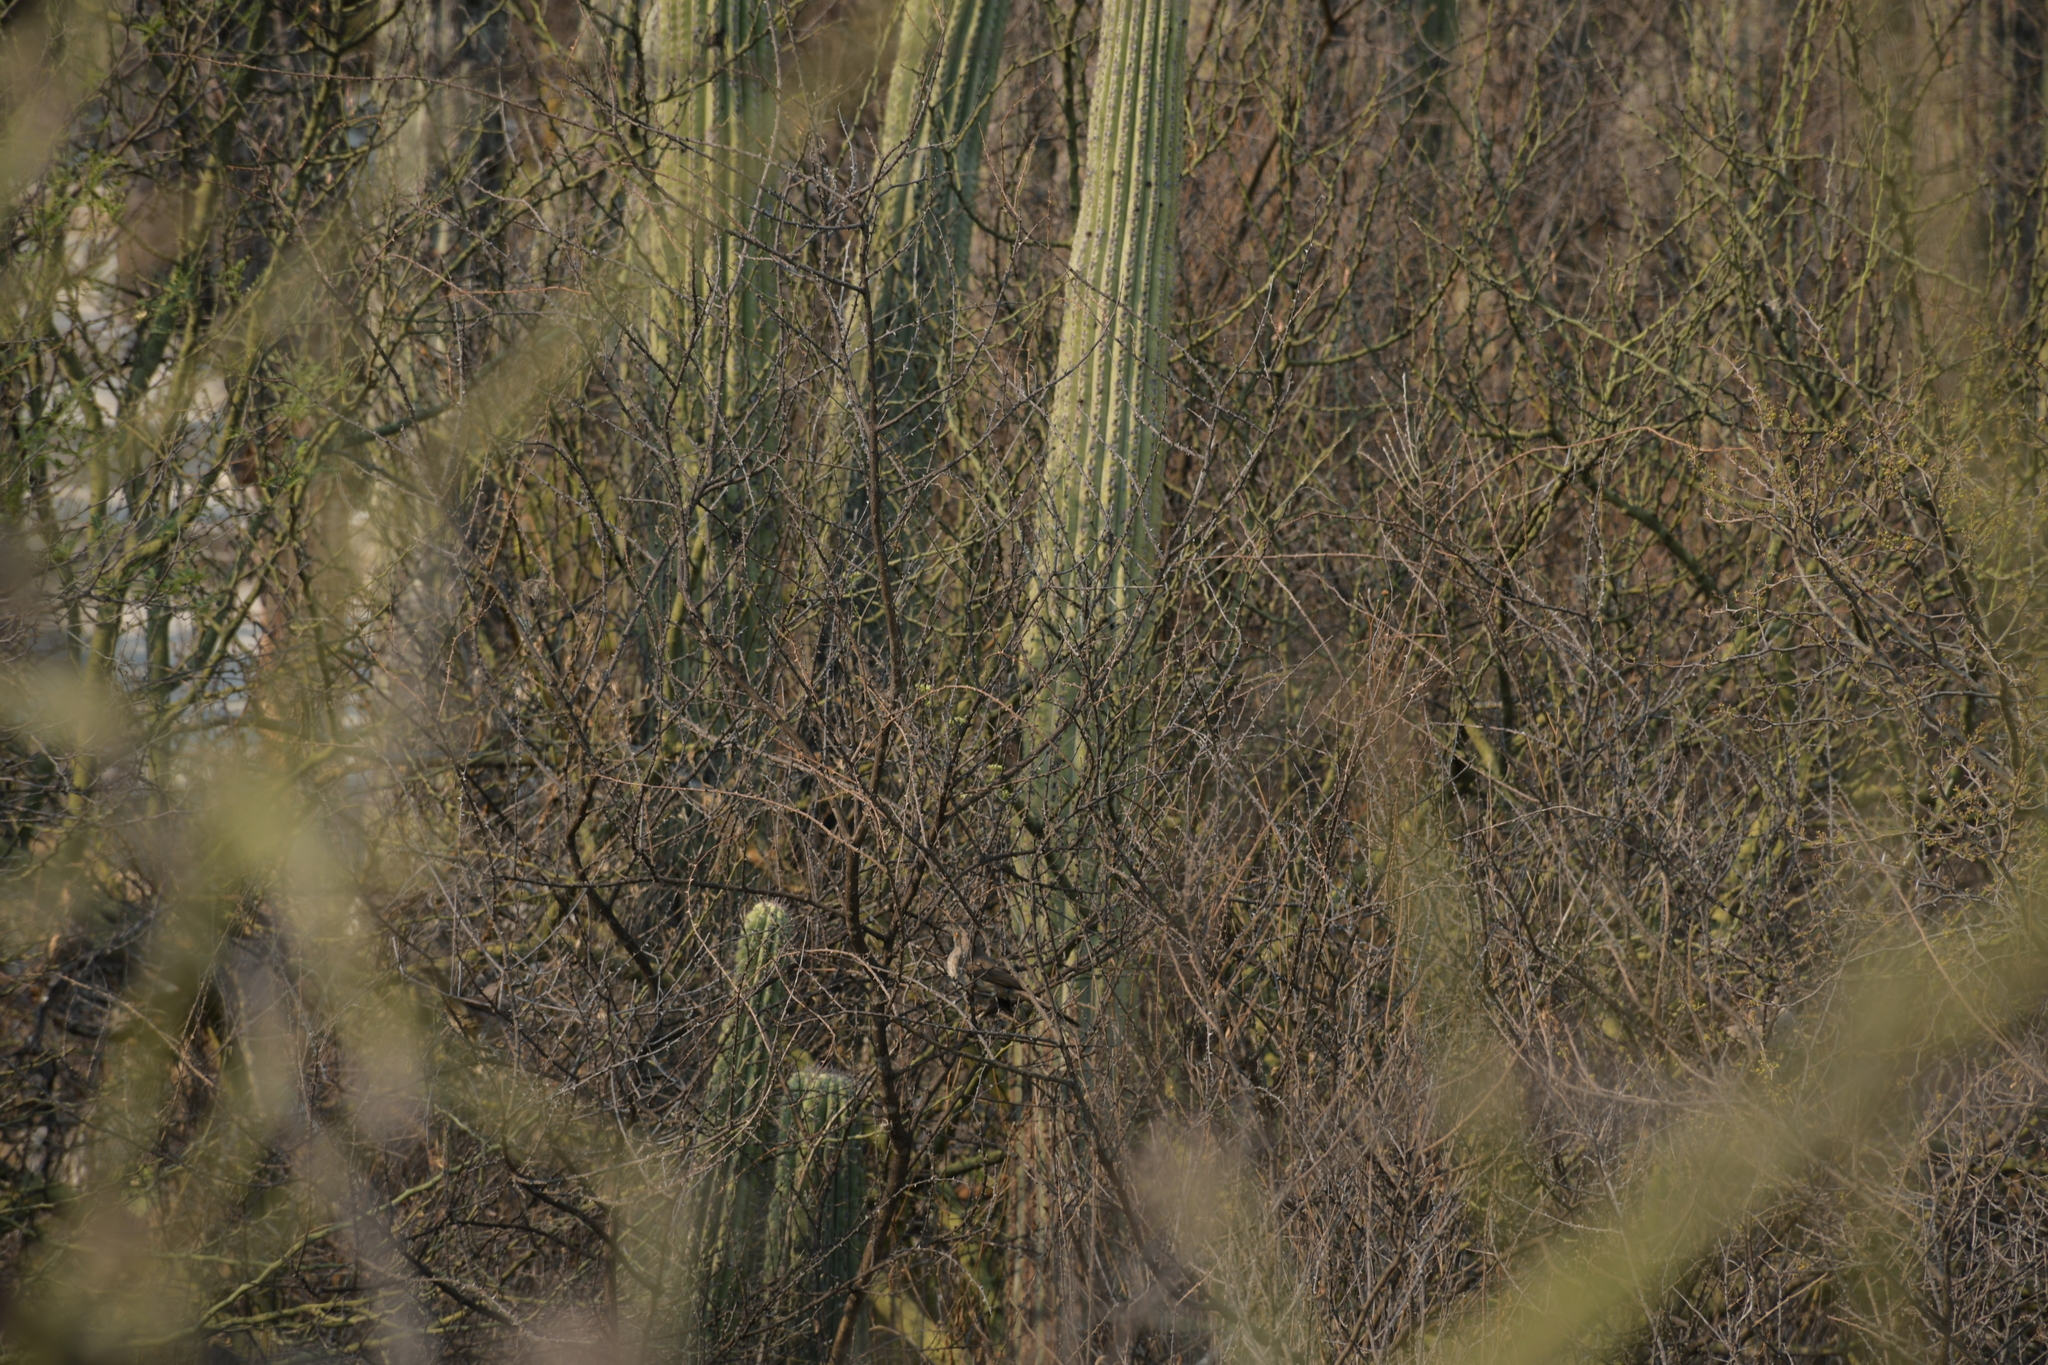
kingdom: Animalia
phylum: Chordata
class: Aves
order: Passeriformes
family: Mimidae
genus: Toxostoma
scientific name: Toxostoma curvirostre
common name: Curve-billed thrasher
